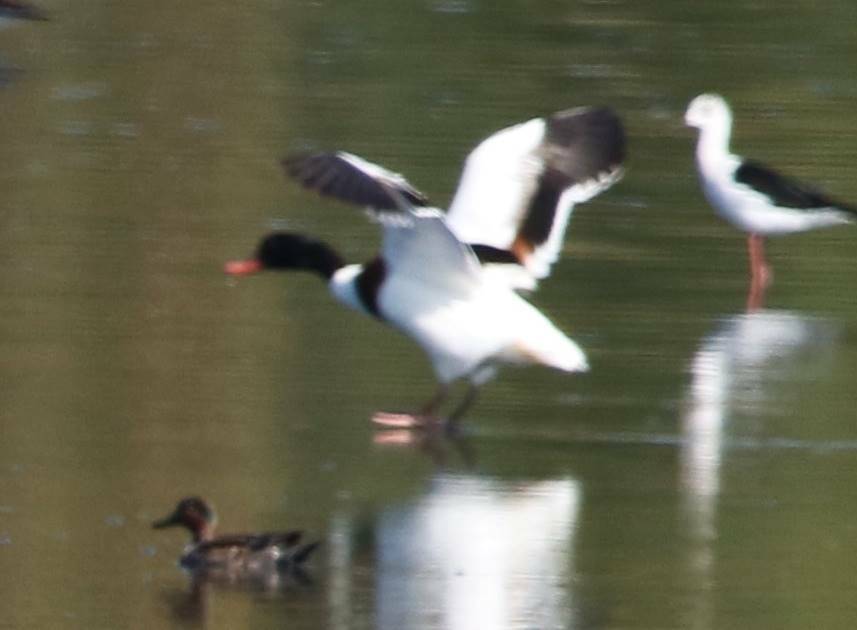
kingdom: Animalia
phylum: Chordata
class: Aves
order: Anseriformes
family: Anatidae
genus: Tadorna
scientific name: Tadorna tadorna
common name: Common shelduck
